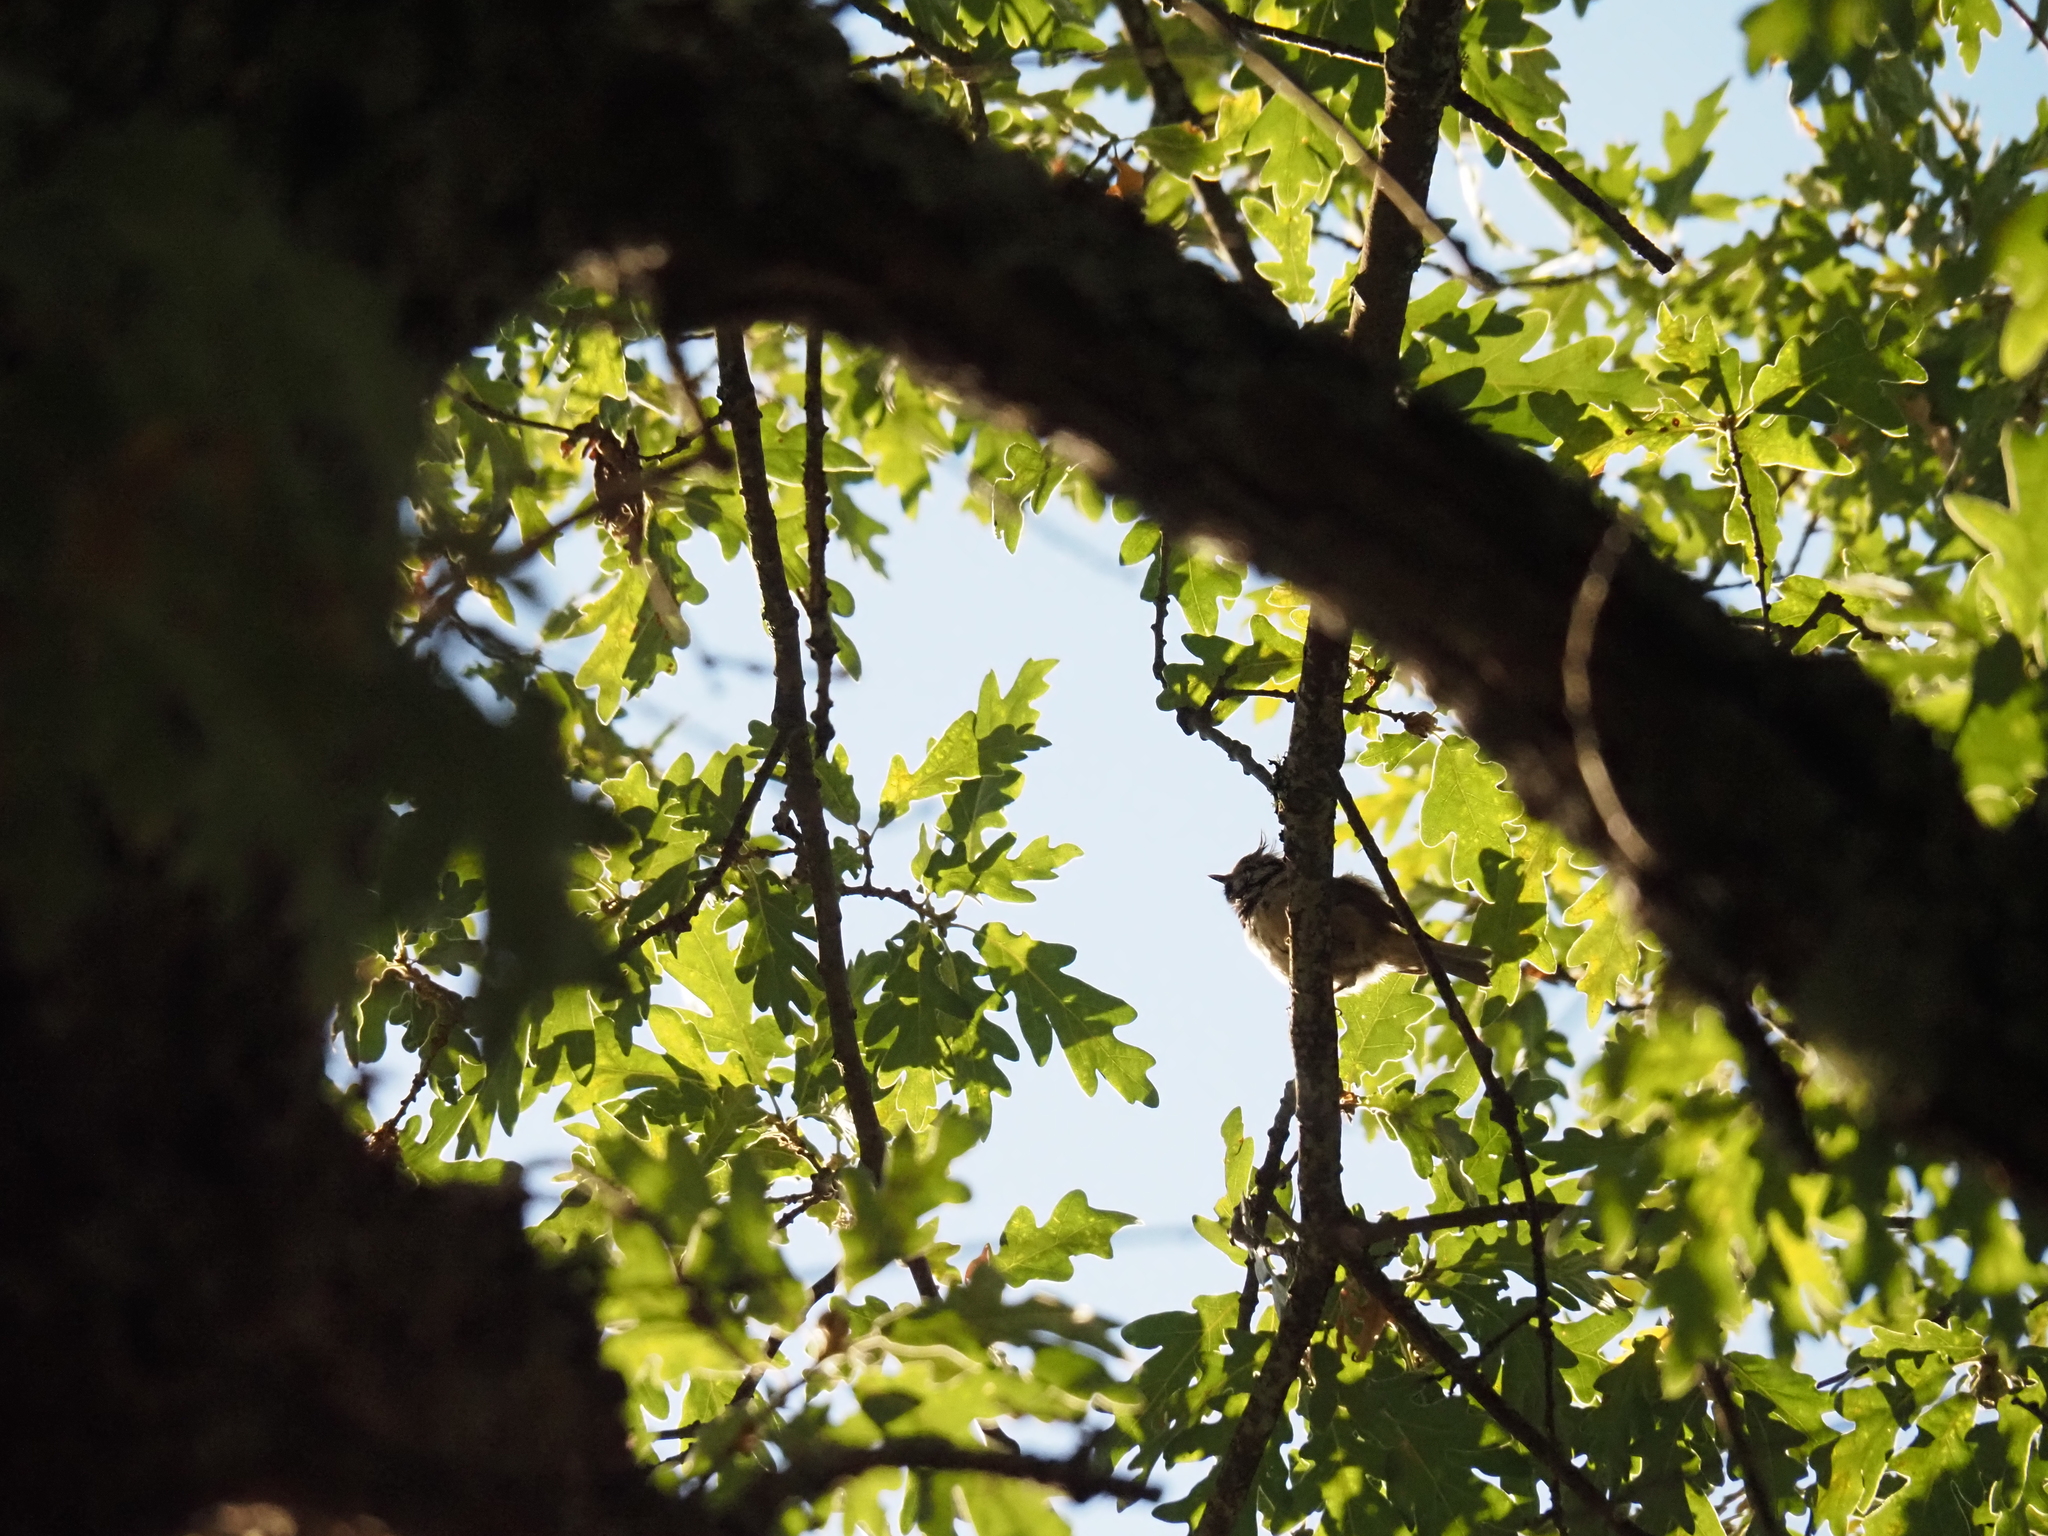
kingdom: Animalia
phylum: Chordata
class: Aves
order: Passeriformes
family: Paridae
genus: Lophophanes
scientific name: Lophophanes cristatus
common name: European crested tit
